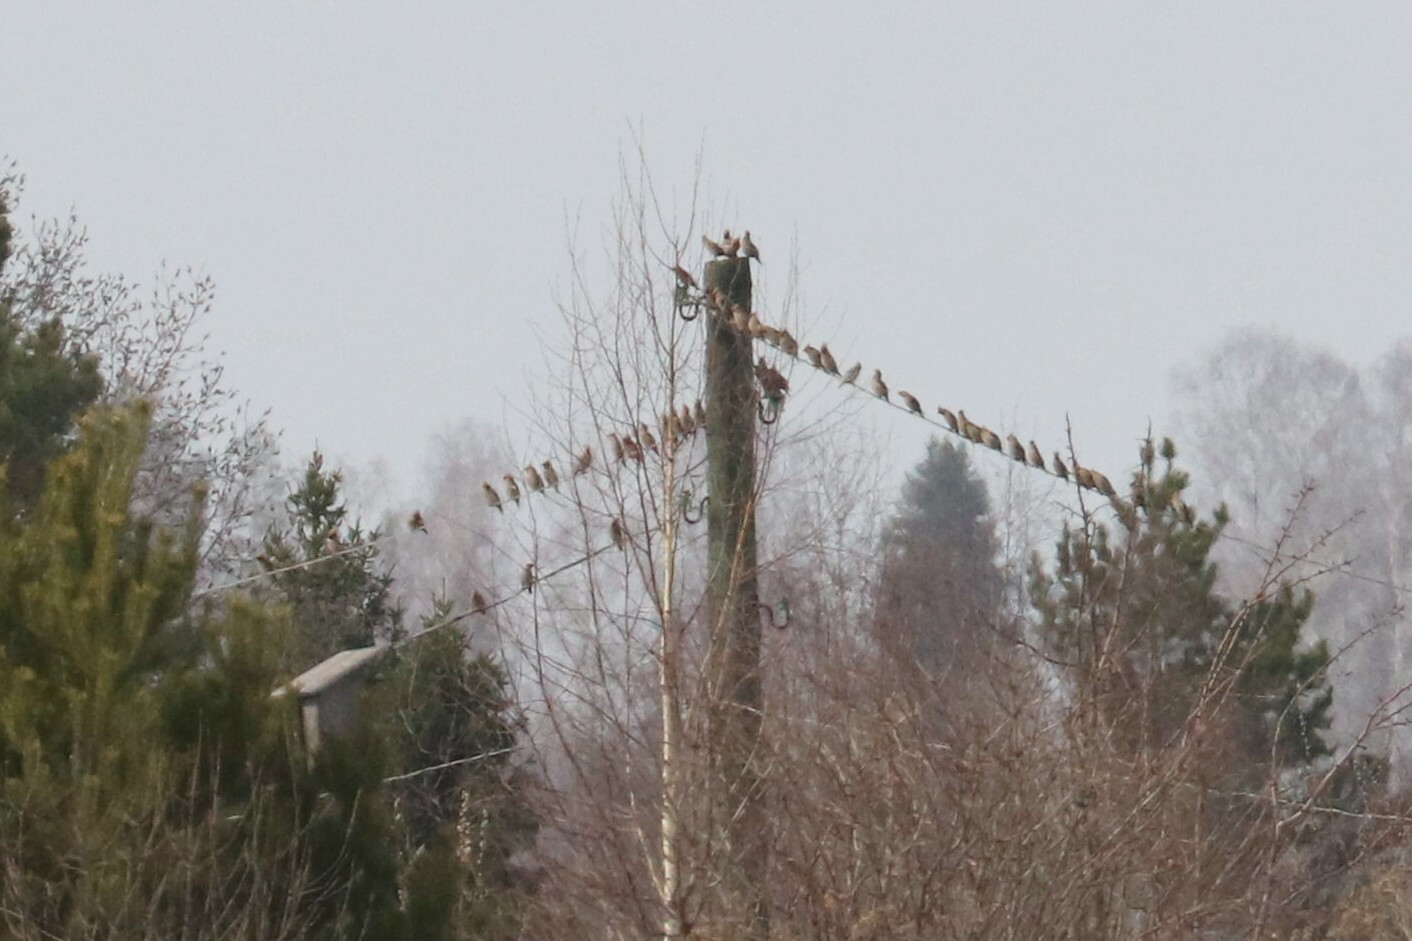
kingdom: Animalia
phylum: Chordata
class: Aves
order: Passeriformes
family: Bombycillidae
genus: Bombycilla
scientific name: Bombycilla garrulus
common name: Bohemian waxwing
